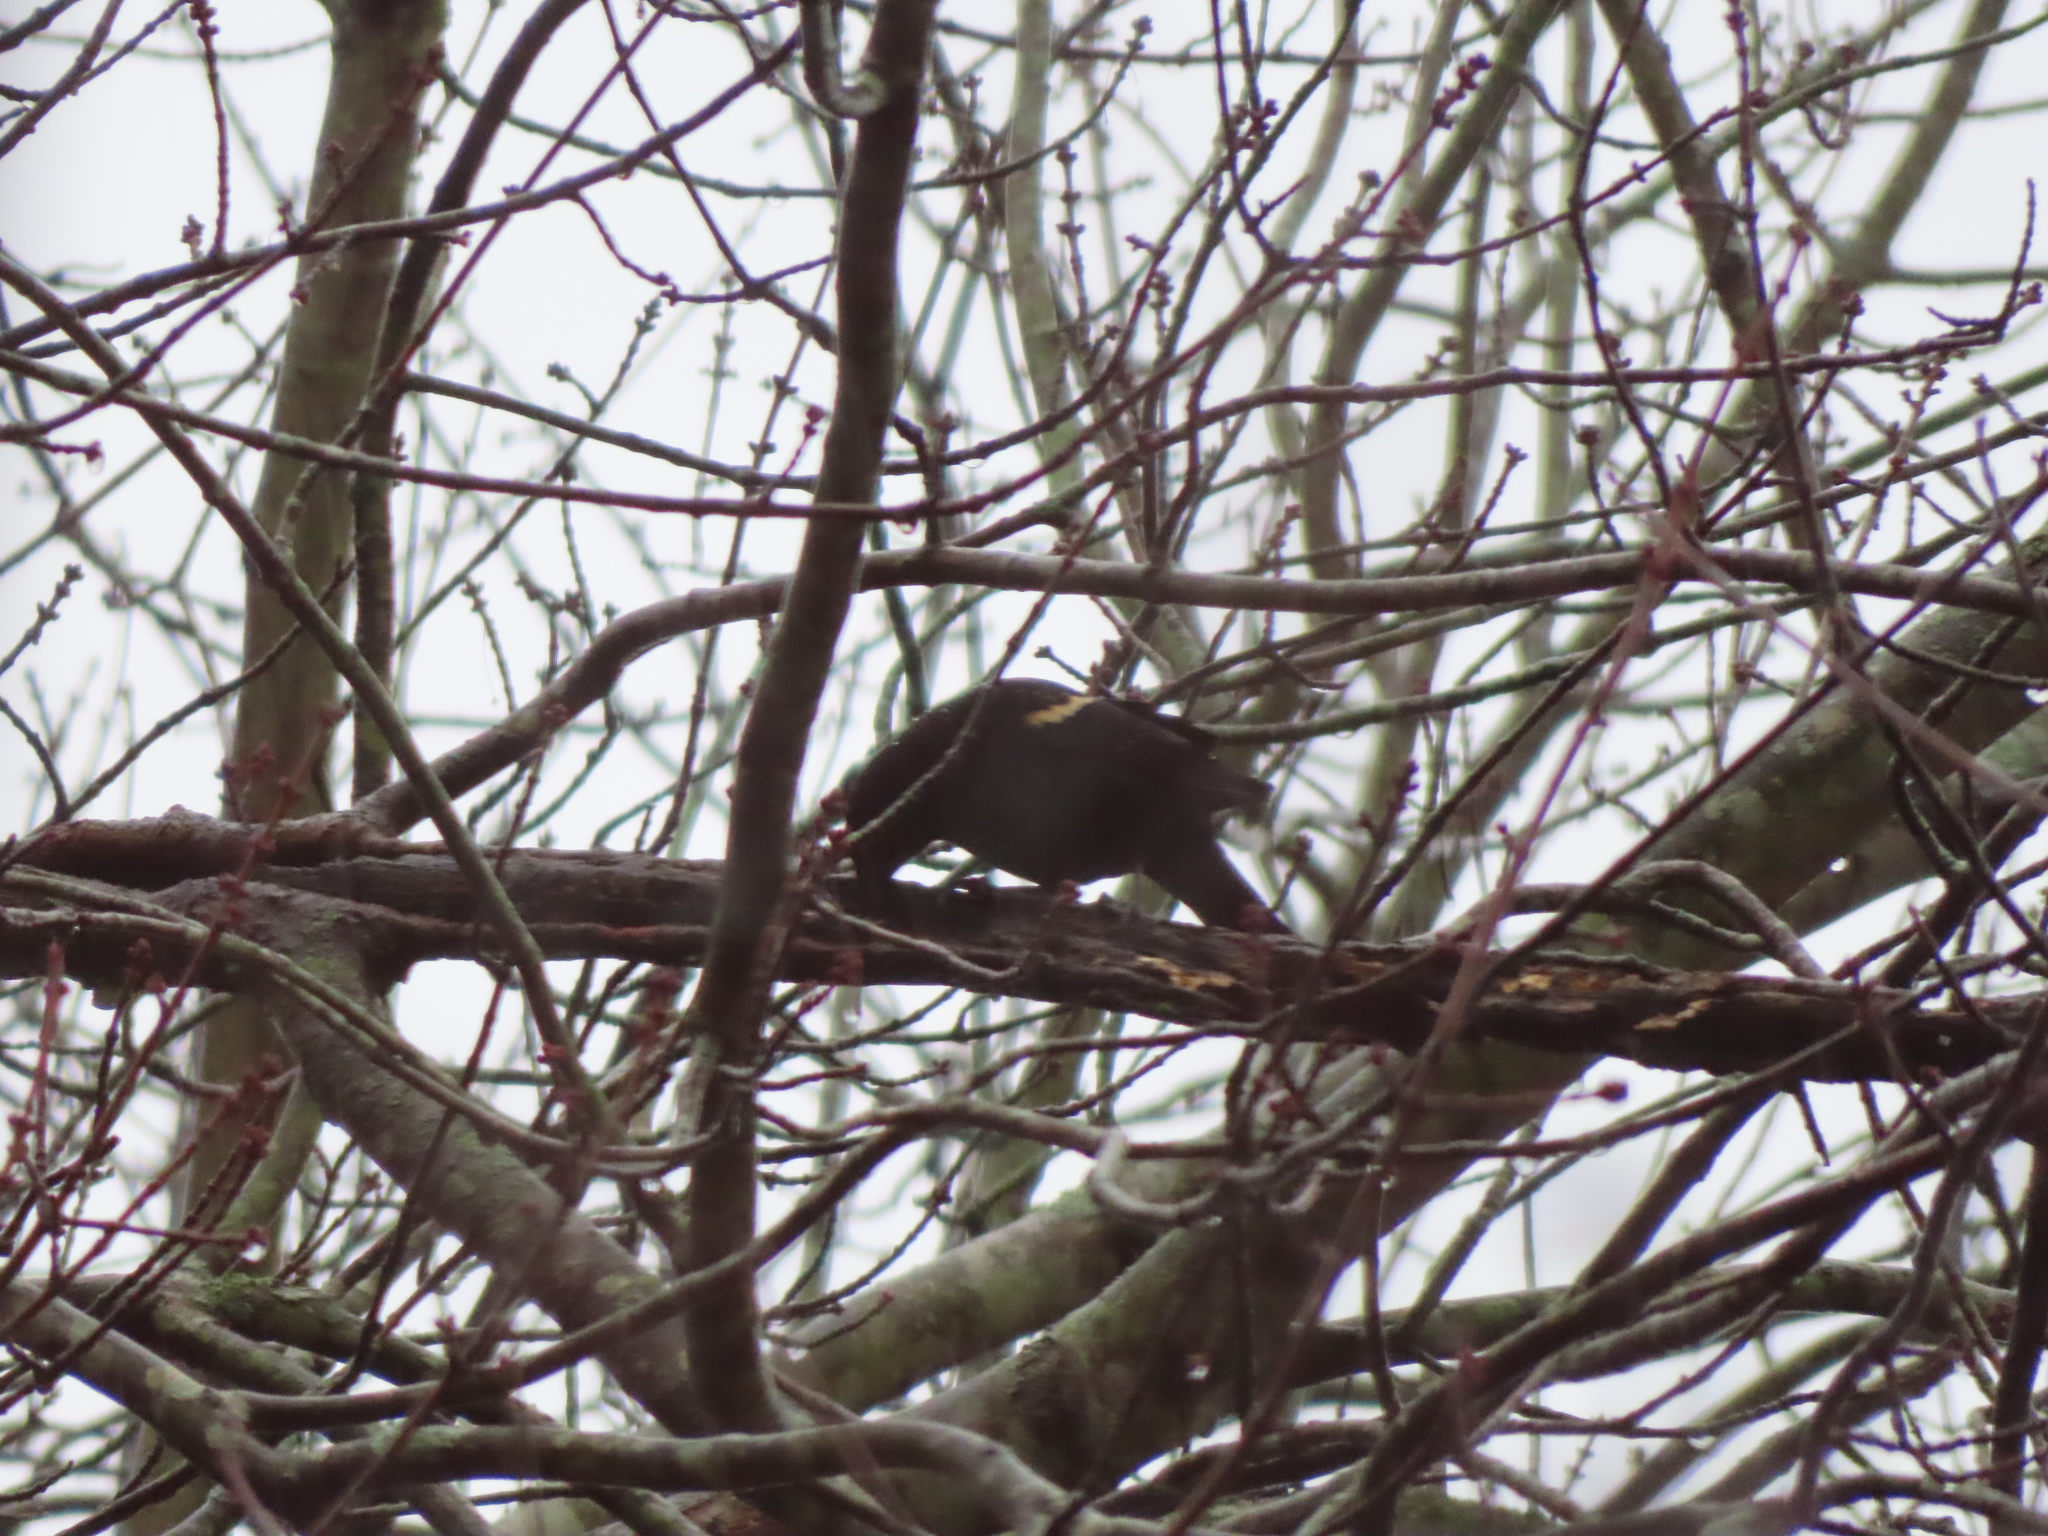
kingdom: Animalia
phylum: Chordata
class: Aves
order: Passeriformes
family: Icteridae
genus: Agelaius
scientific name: Agelaius phoeniceus
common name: Red-winged blackbird
